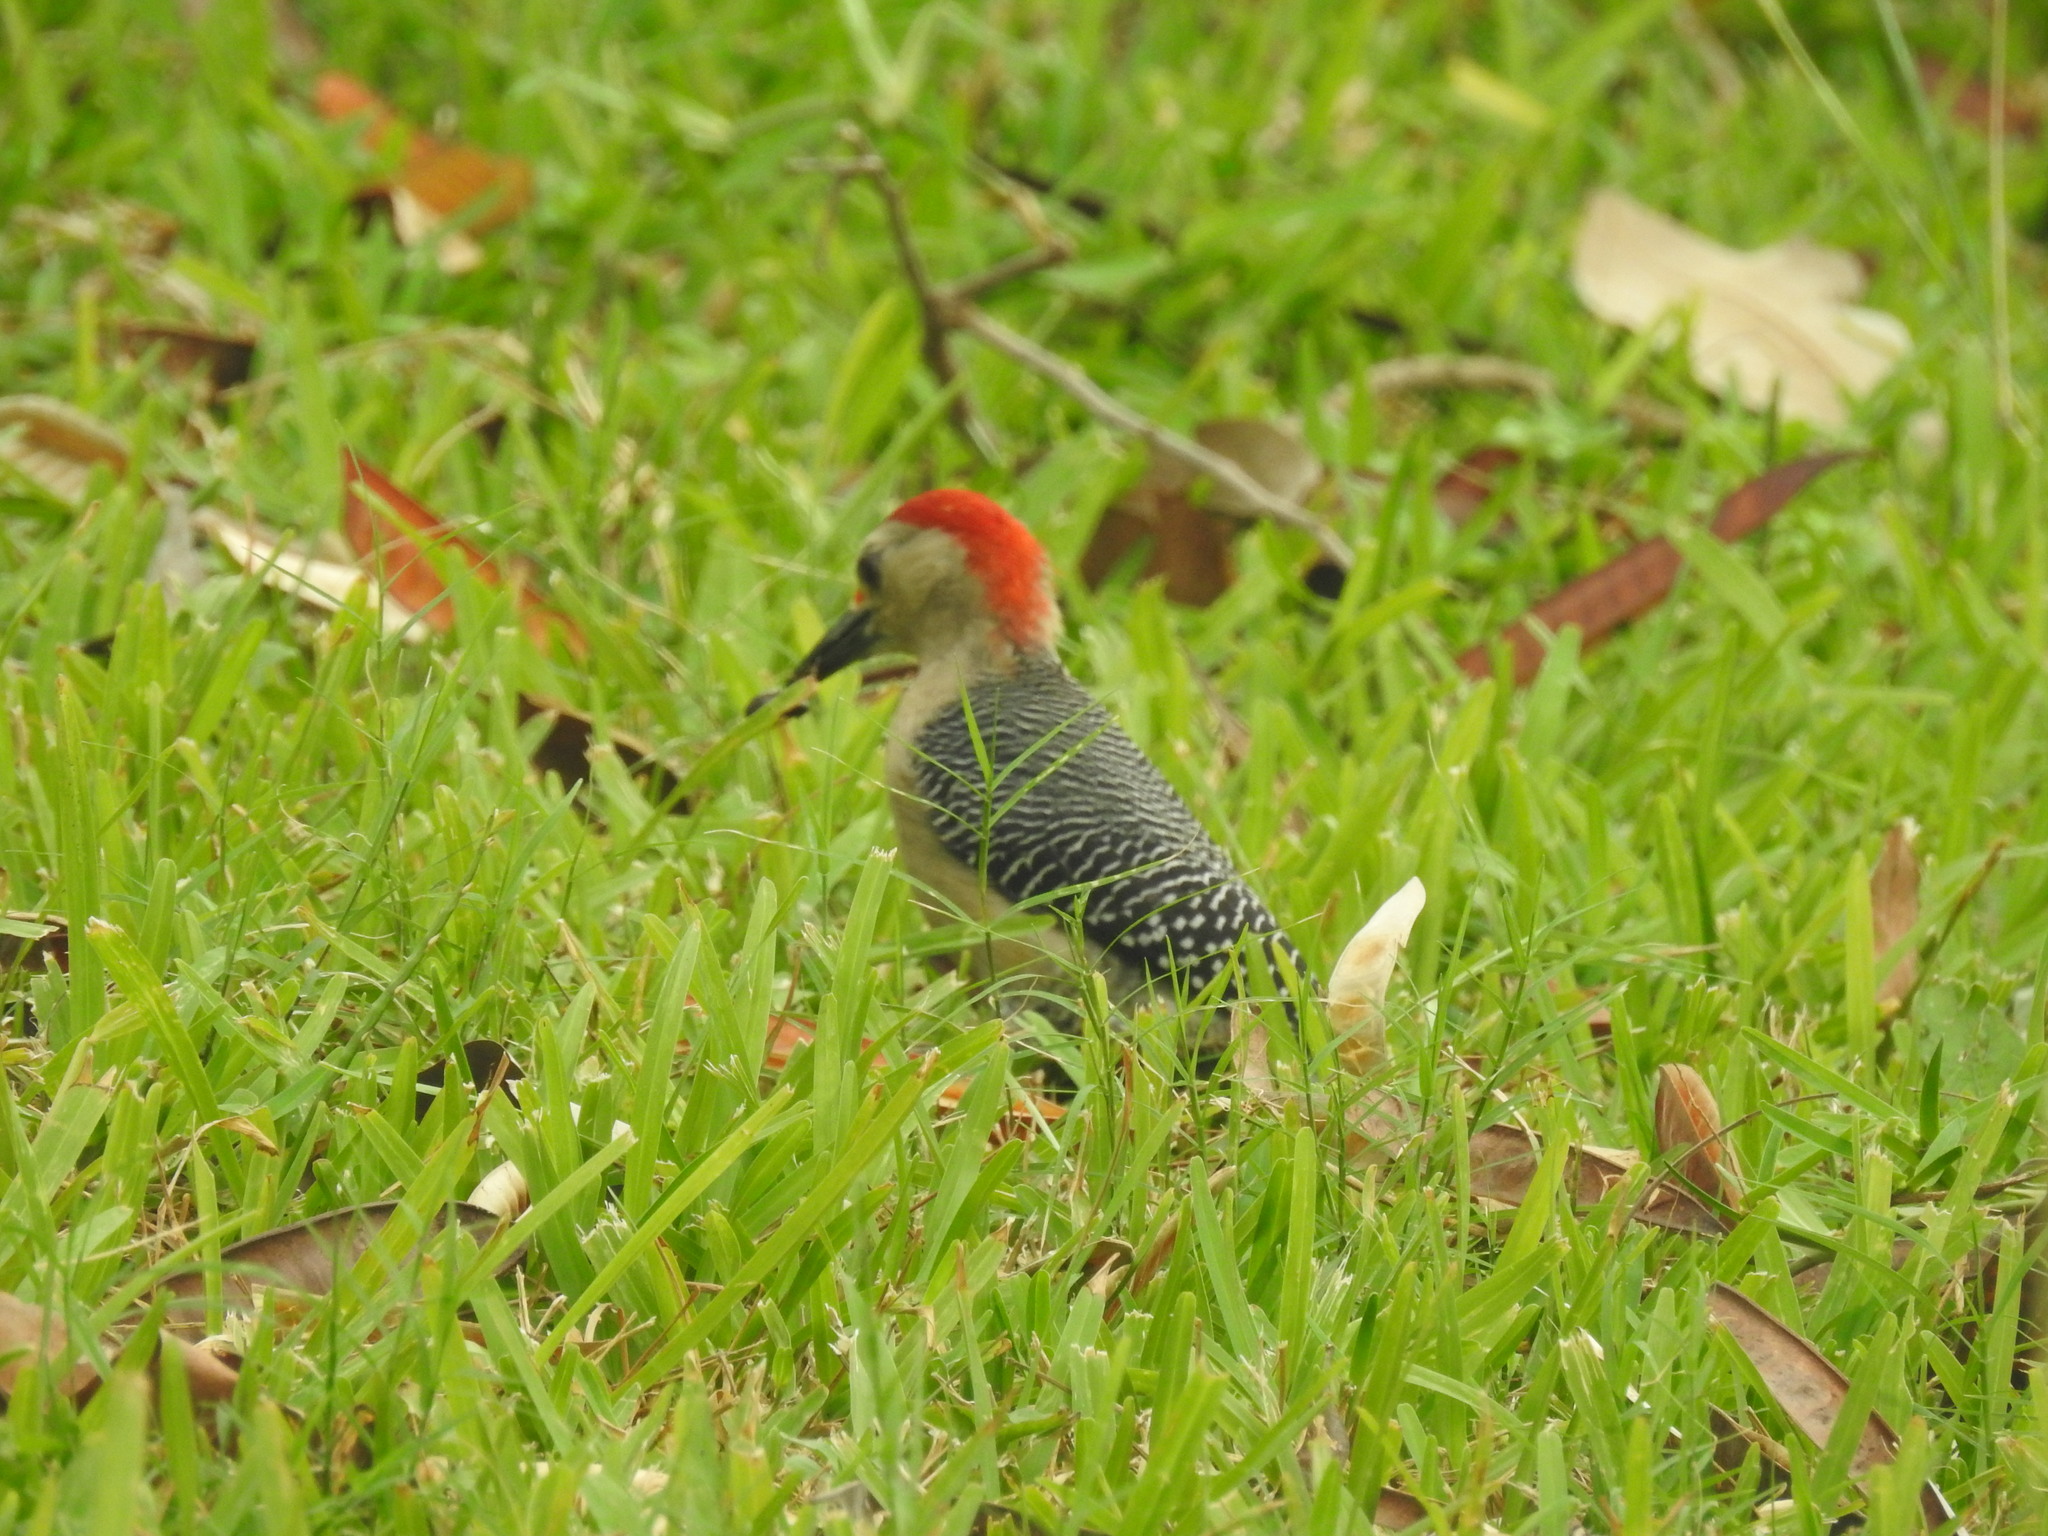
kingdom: Animalia
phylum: Chordata
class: Aves
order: Piciformes
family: Picidae
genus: Melanerpes
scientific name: Melanerpes aurifrons
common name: Golden-fronted woodpecker
